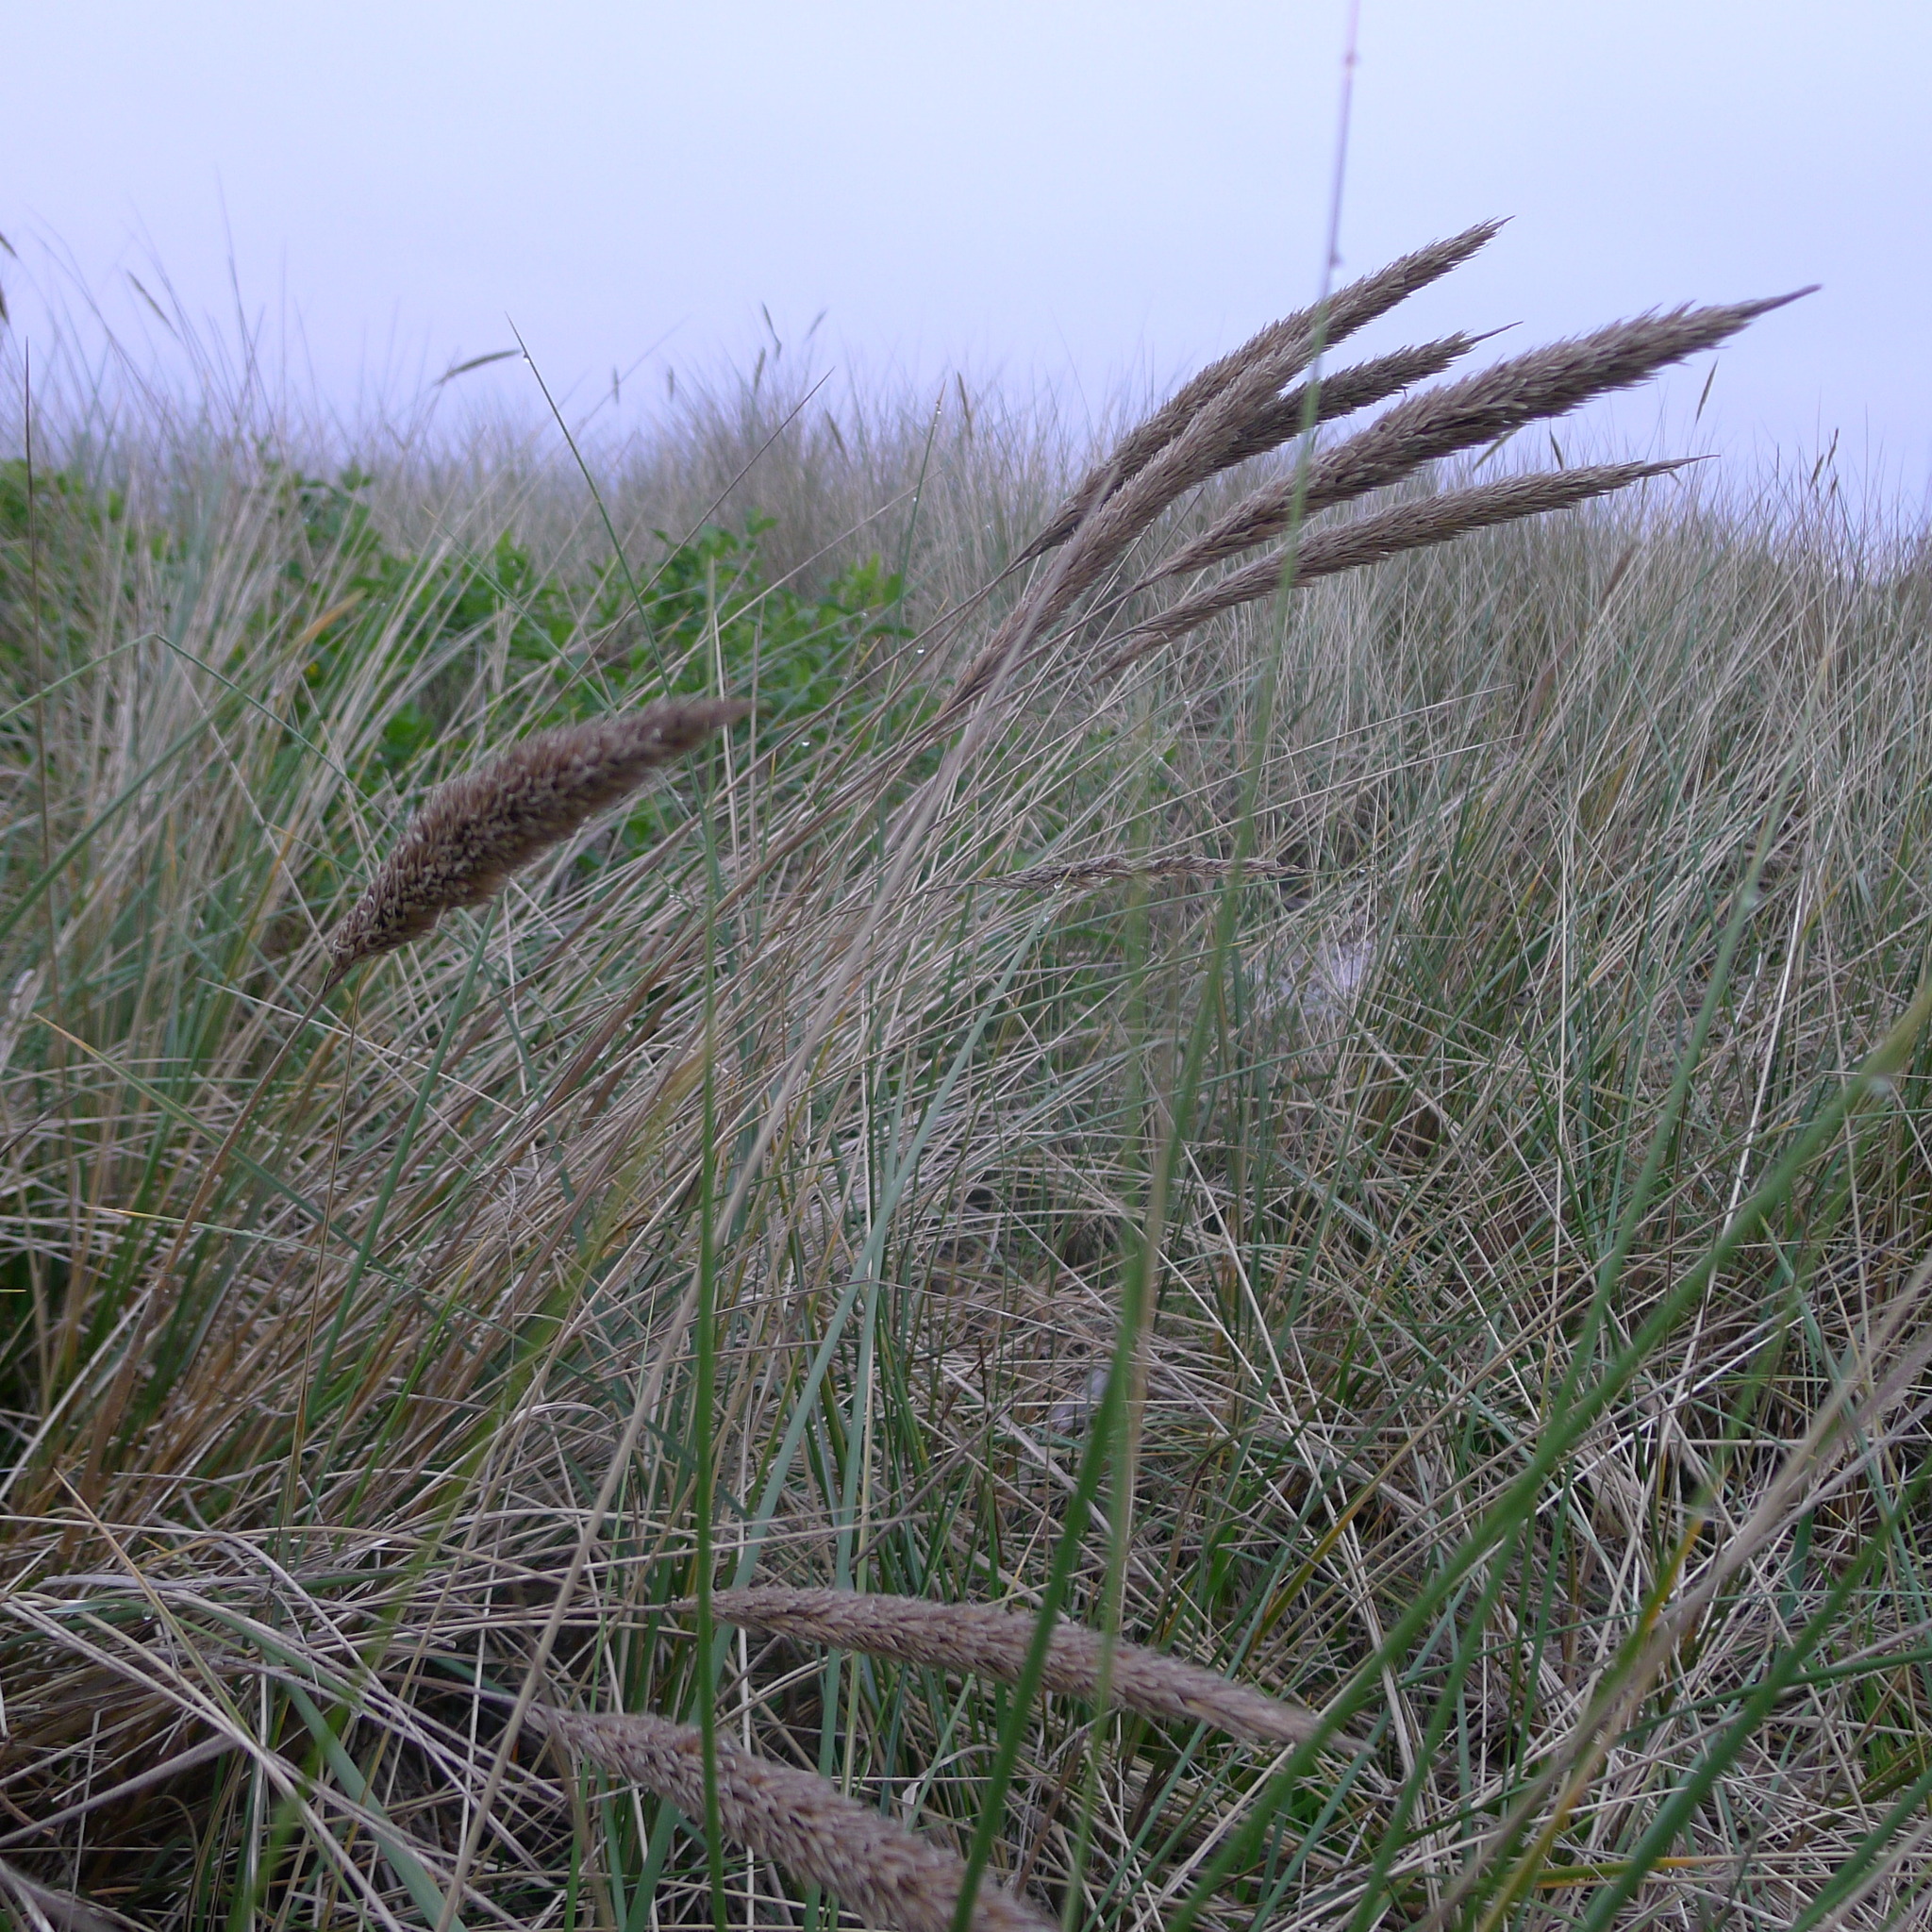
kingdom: Plantae
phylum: Tracheophyta
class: Liliopsida
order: Poales
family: Poaceae
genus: Calamagrostis
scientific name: Calamagrostis arenaria
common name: European beachgrass
